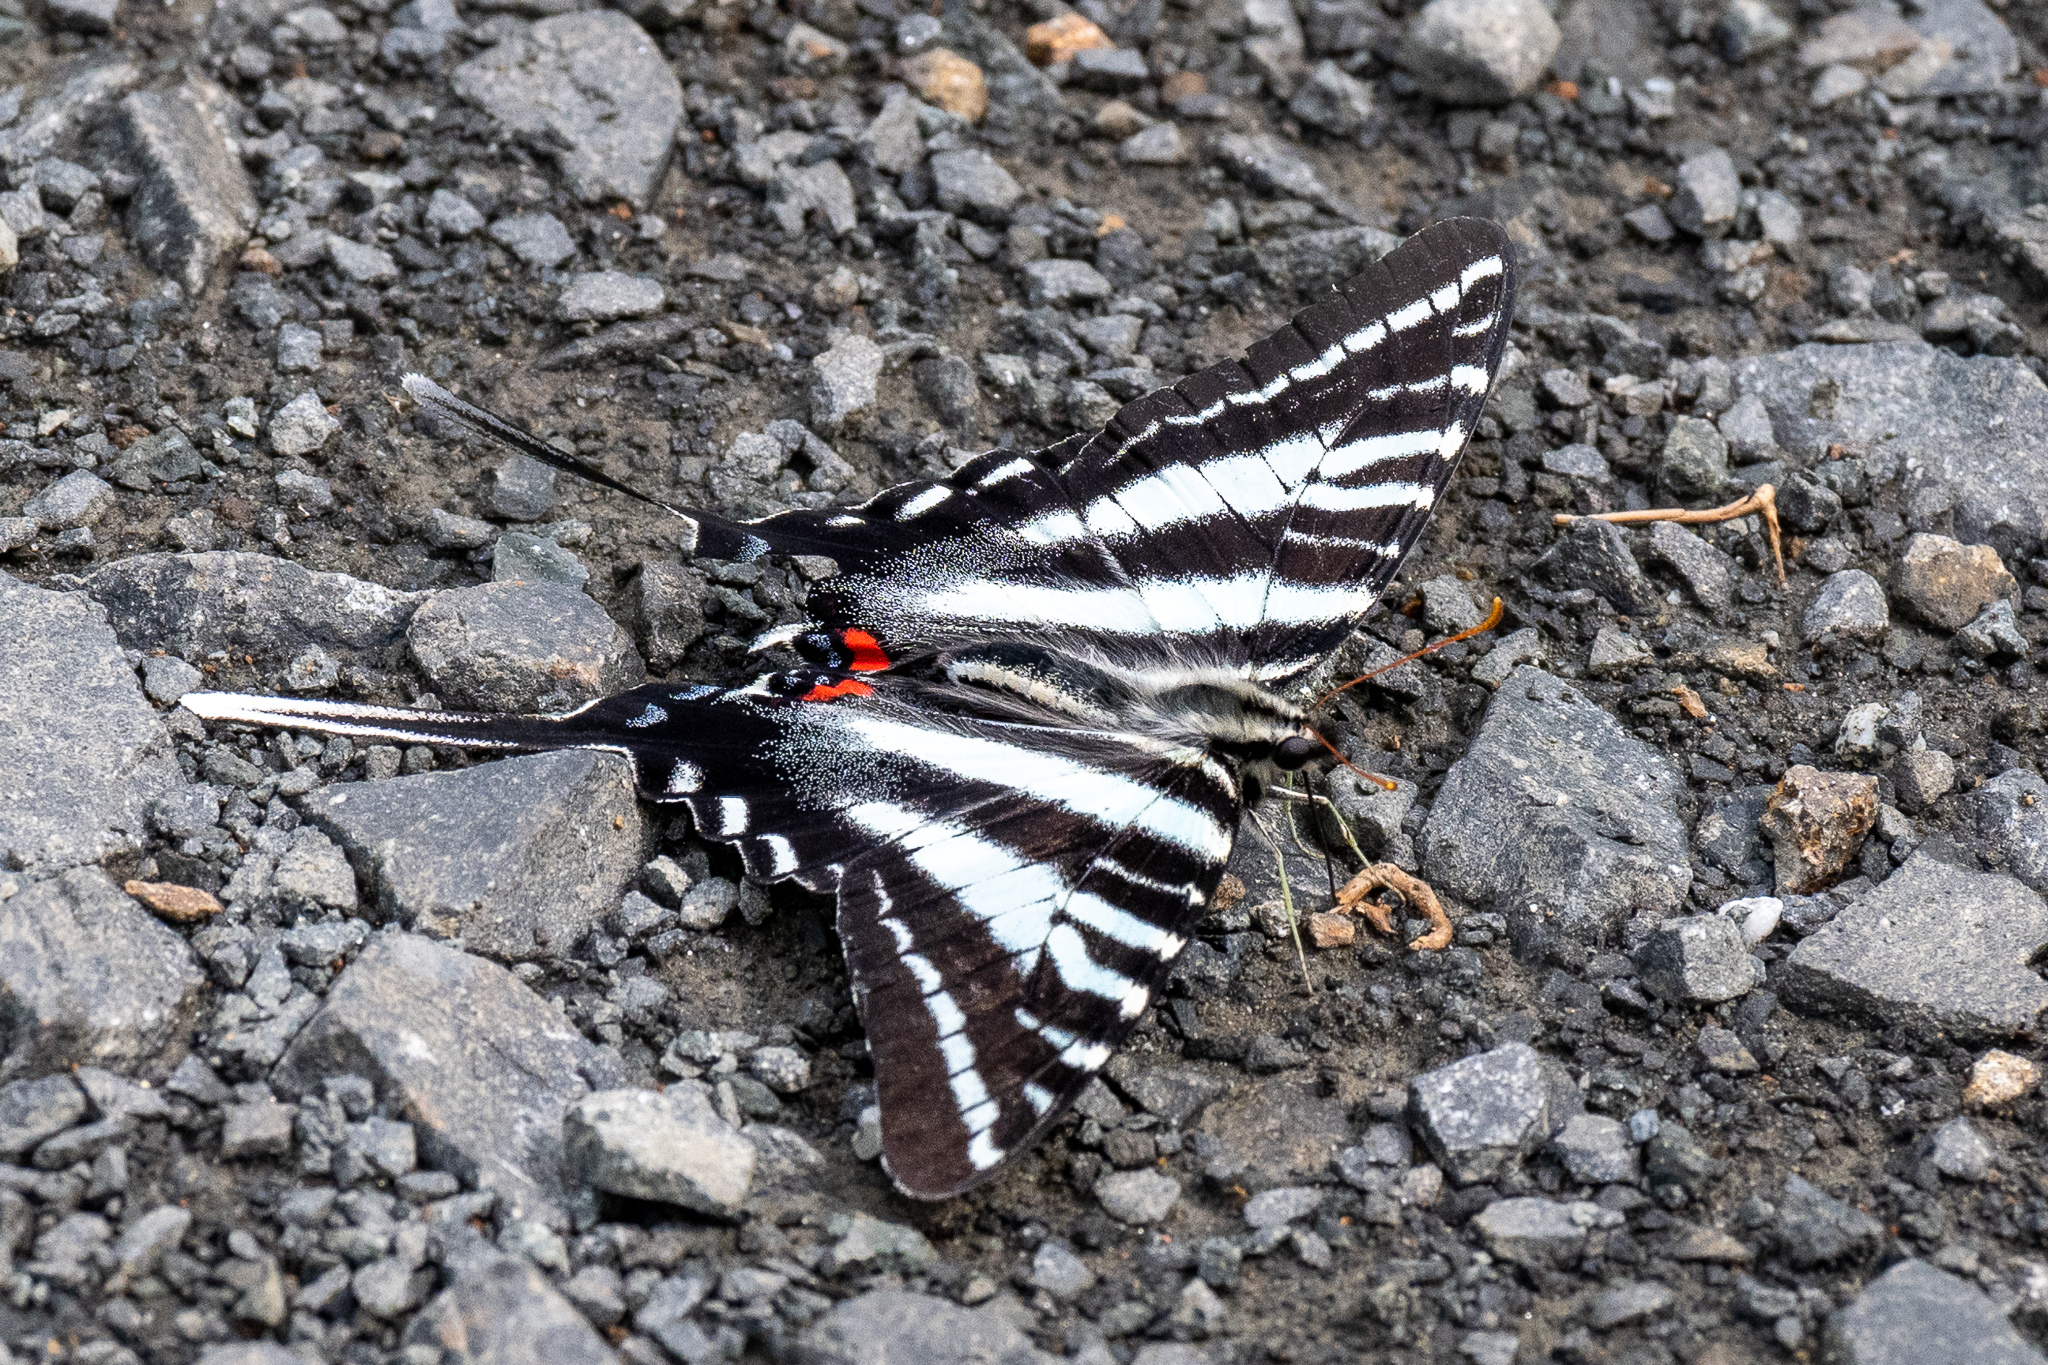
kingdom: Animalia
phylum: Arthropoda
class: Insecta
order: Lepidoptera
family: Papilionidae
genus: Protographium
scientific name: Protographium marcellus
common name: Zebra swallowtail
